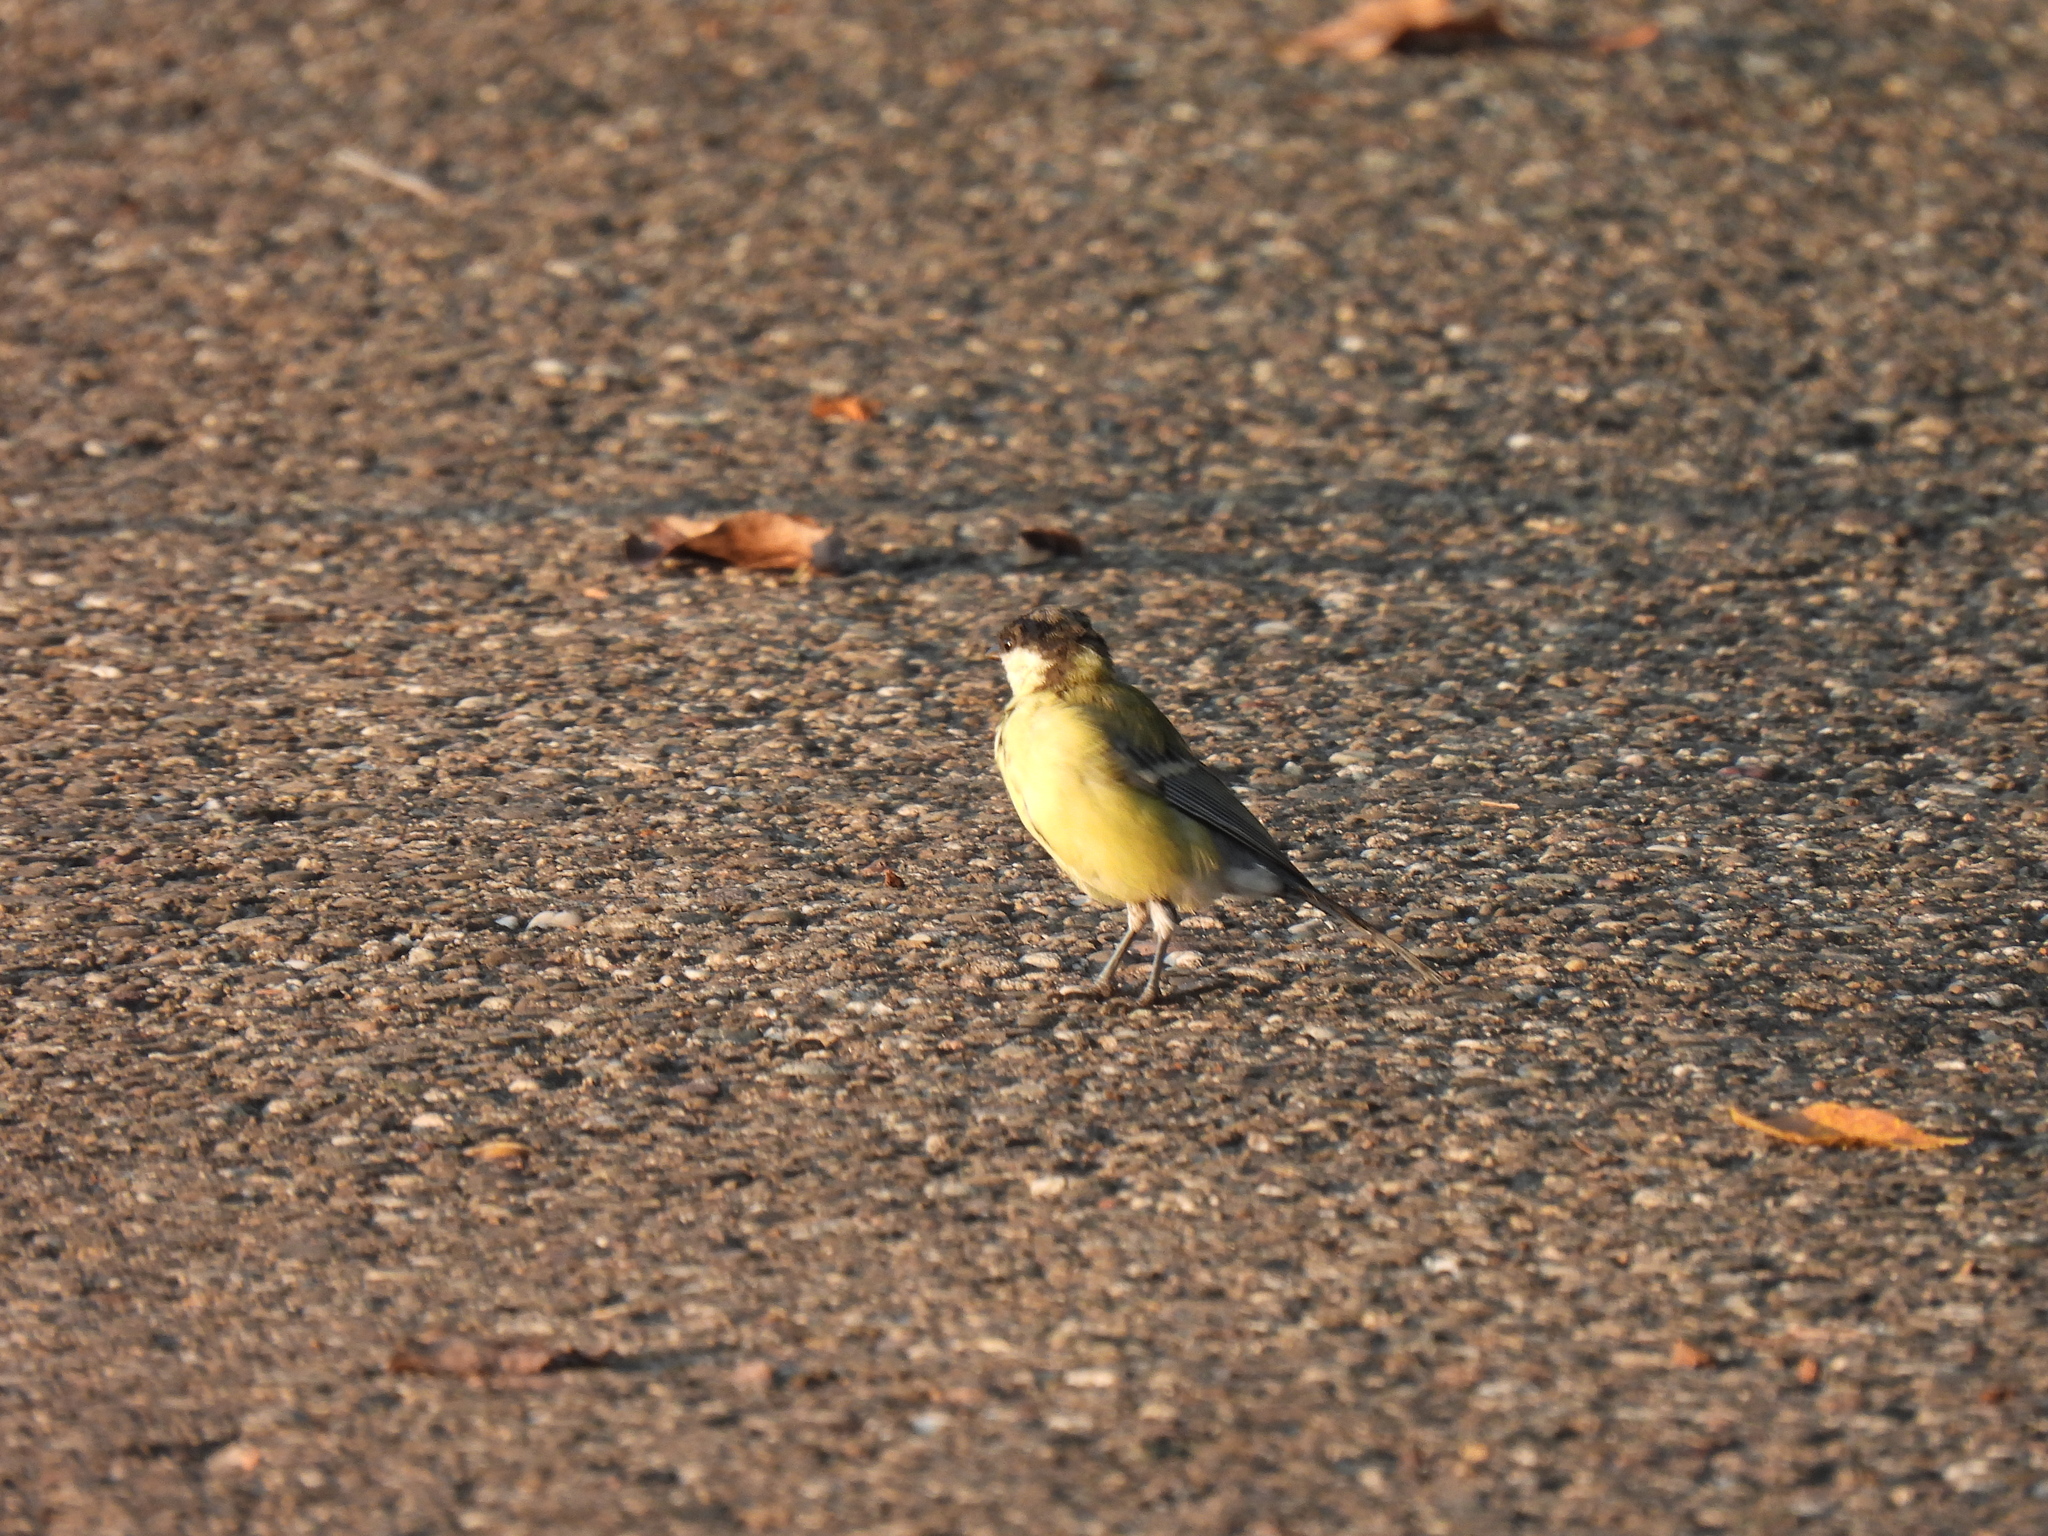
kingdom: Animalia
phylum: Chordata
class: Aves
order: Passeriformes
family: Paridae
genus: Parus
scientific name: Parus major
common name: Great tit
